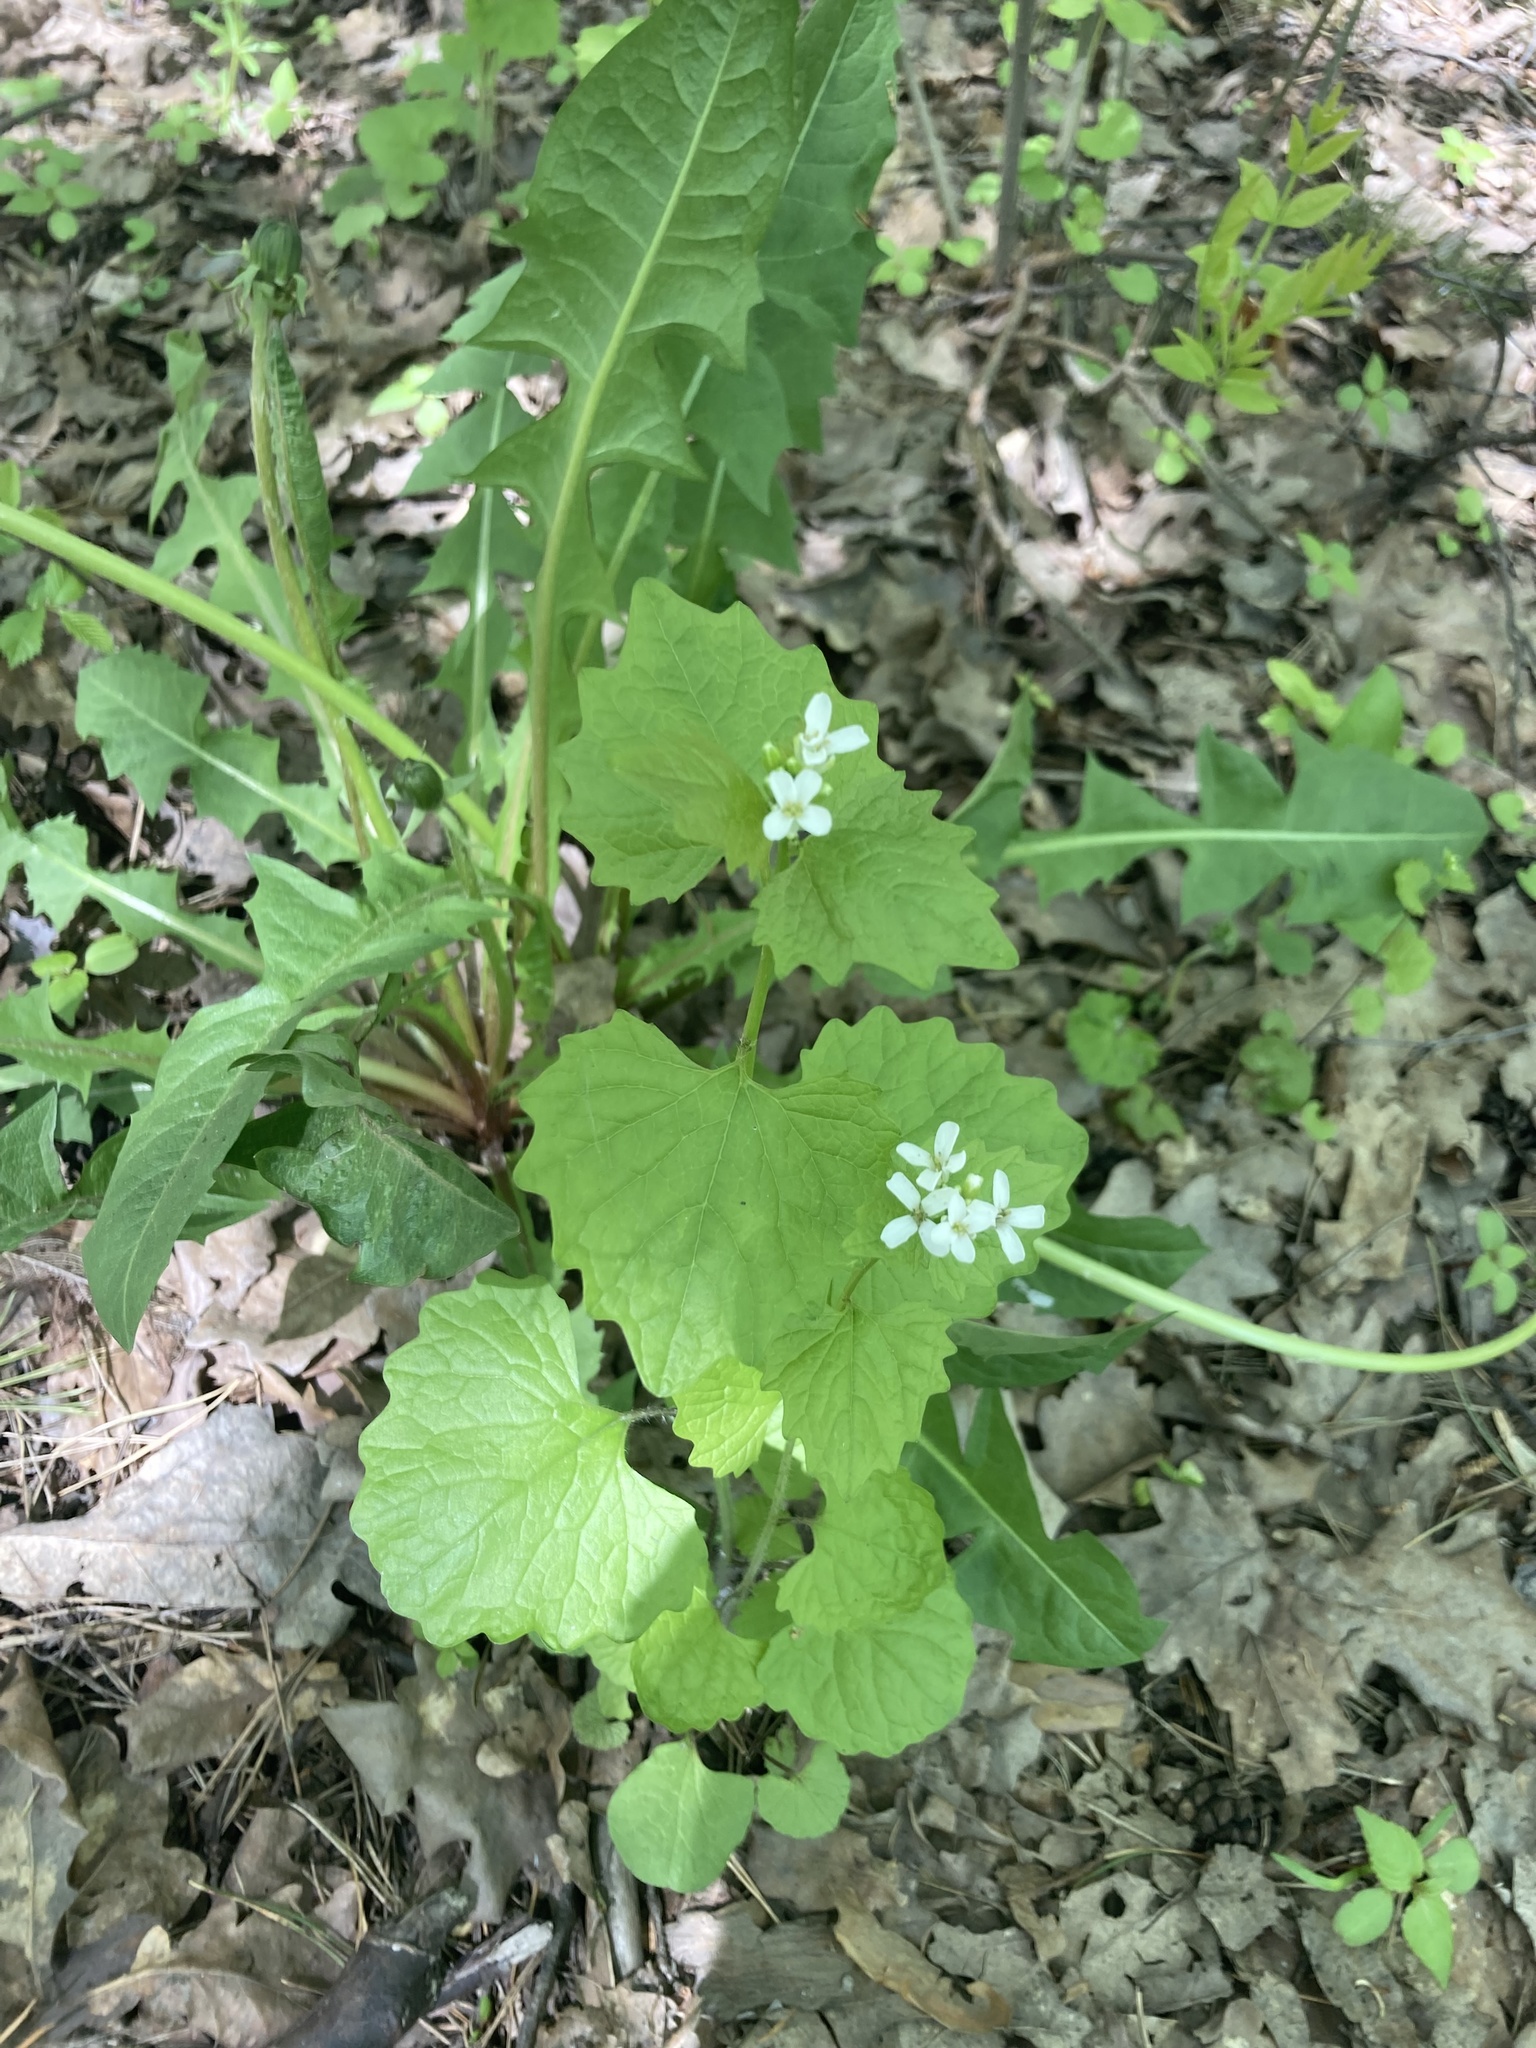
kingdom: Plantae
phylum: Tracheophyta
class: Magnoliopsida
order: Brassicales
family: Brassicaceae
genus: Alliaria
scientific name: Alliaria petiolata
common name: Garlic mustard
